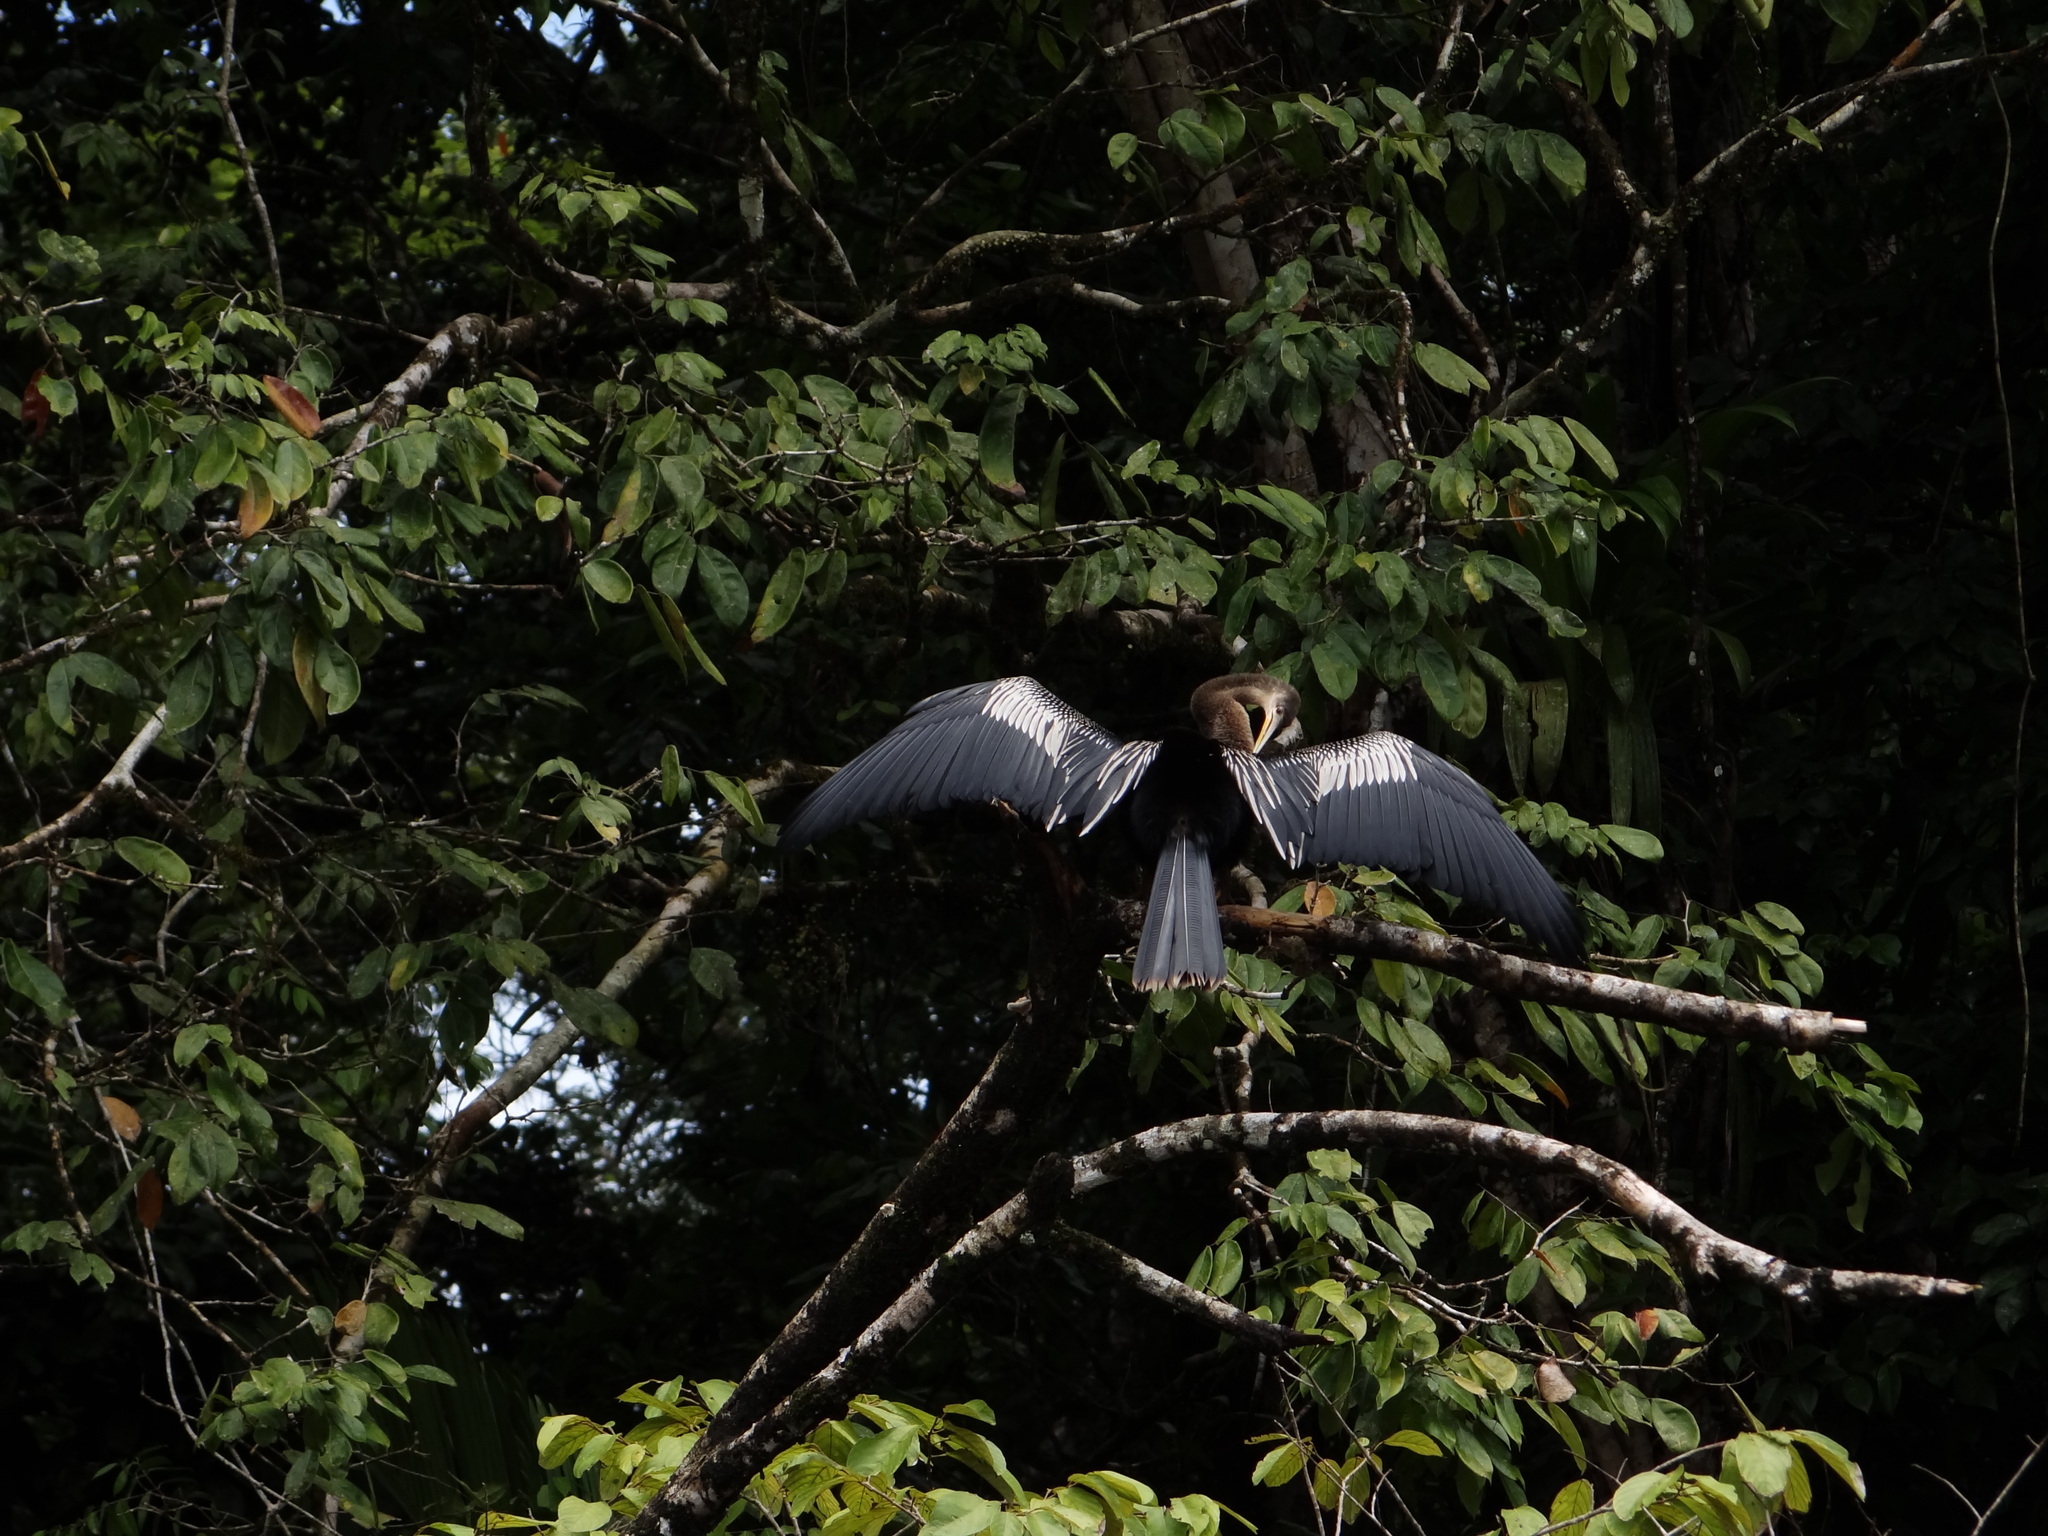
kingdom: Animalia
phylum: Chordata
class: Aves
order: Suliformes
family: Anhingidae
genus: Anhinga
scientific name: Anhinga anhinga
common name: Anhinga
